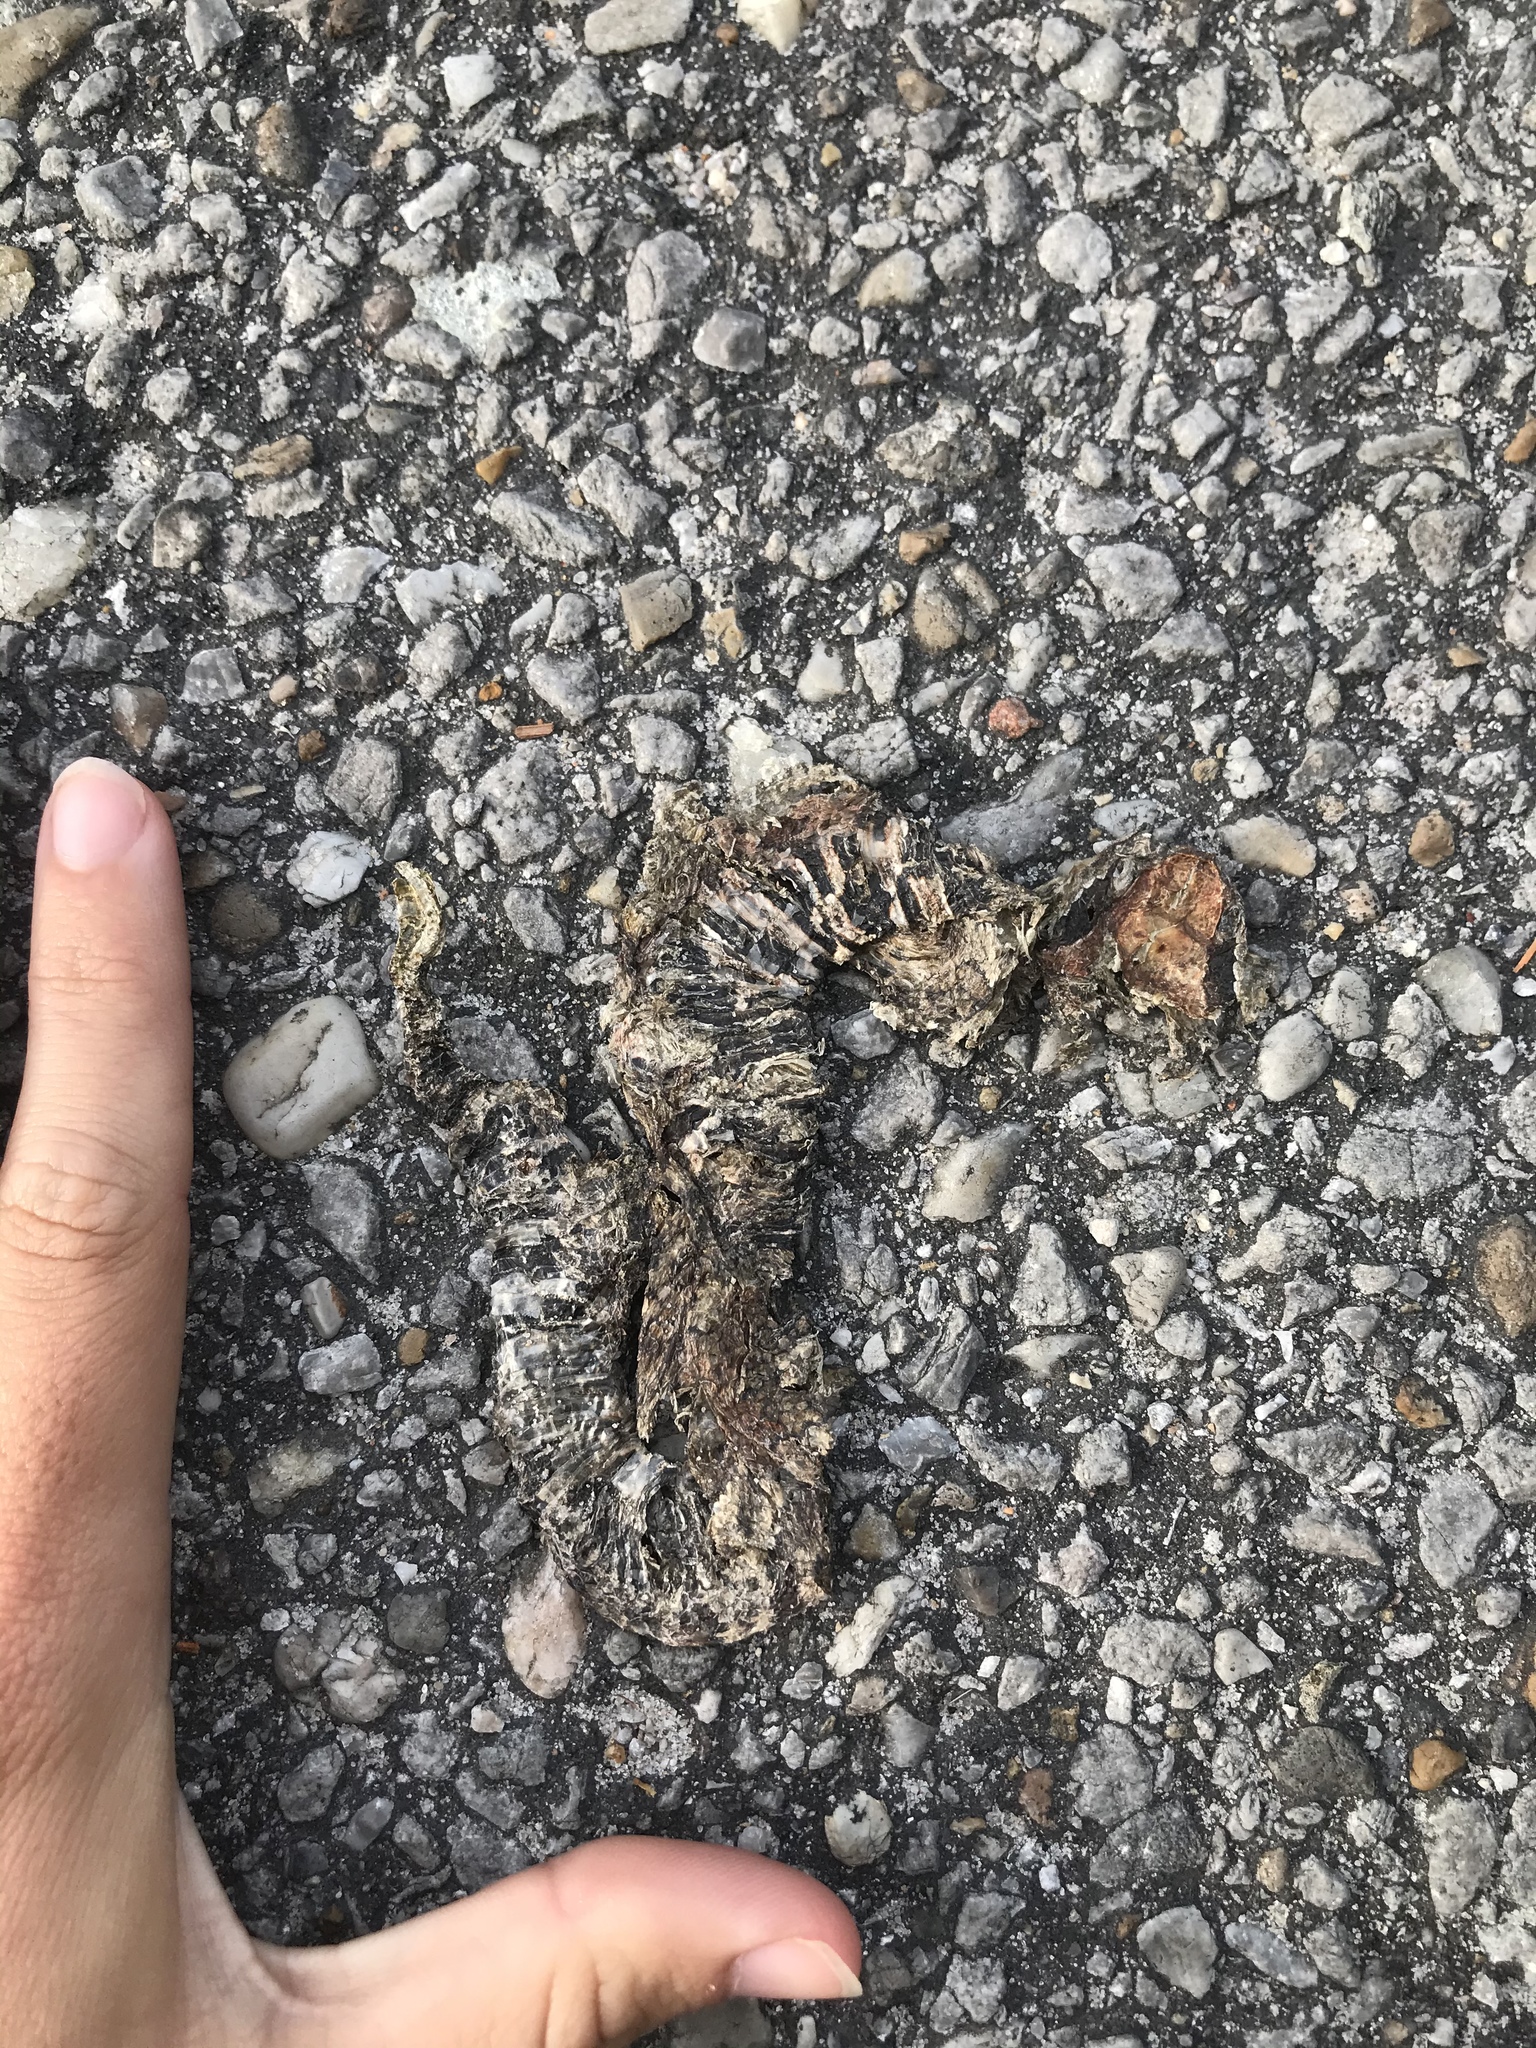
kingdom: Animalia
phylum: Chordata
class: Squamata
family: Viperidae
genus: Agkistrodon
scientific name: Agkistrodon piscivorus
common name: Cottonmouth
